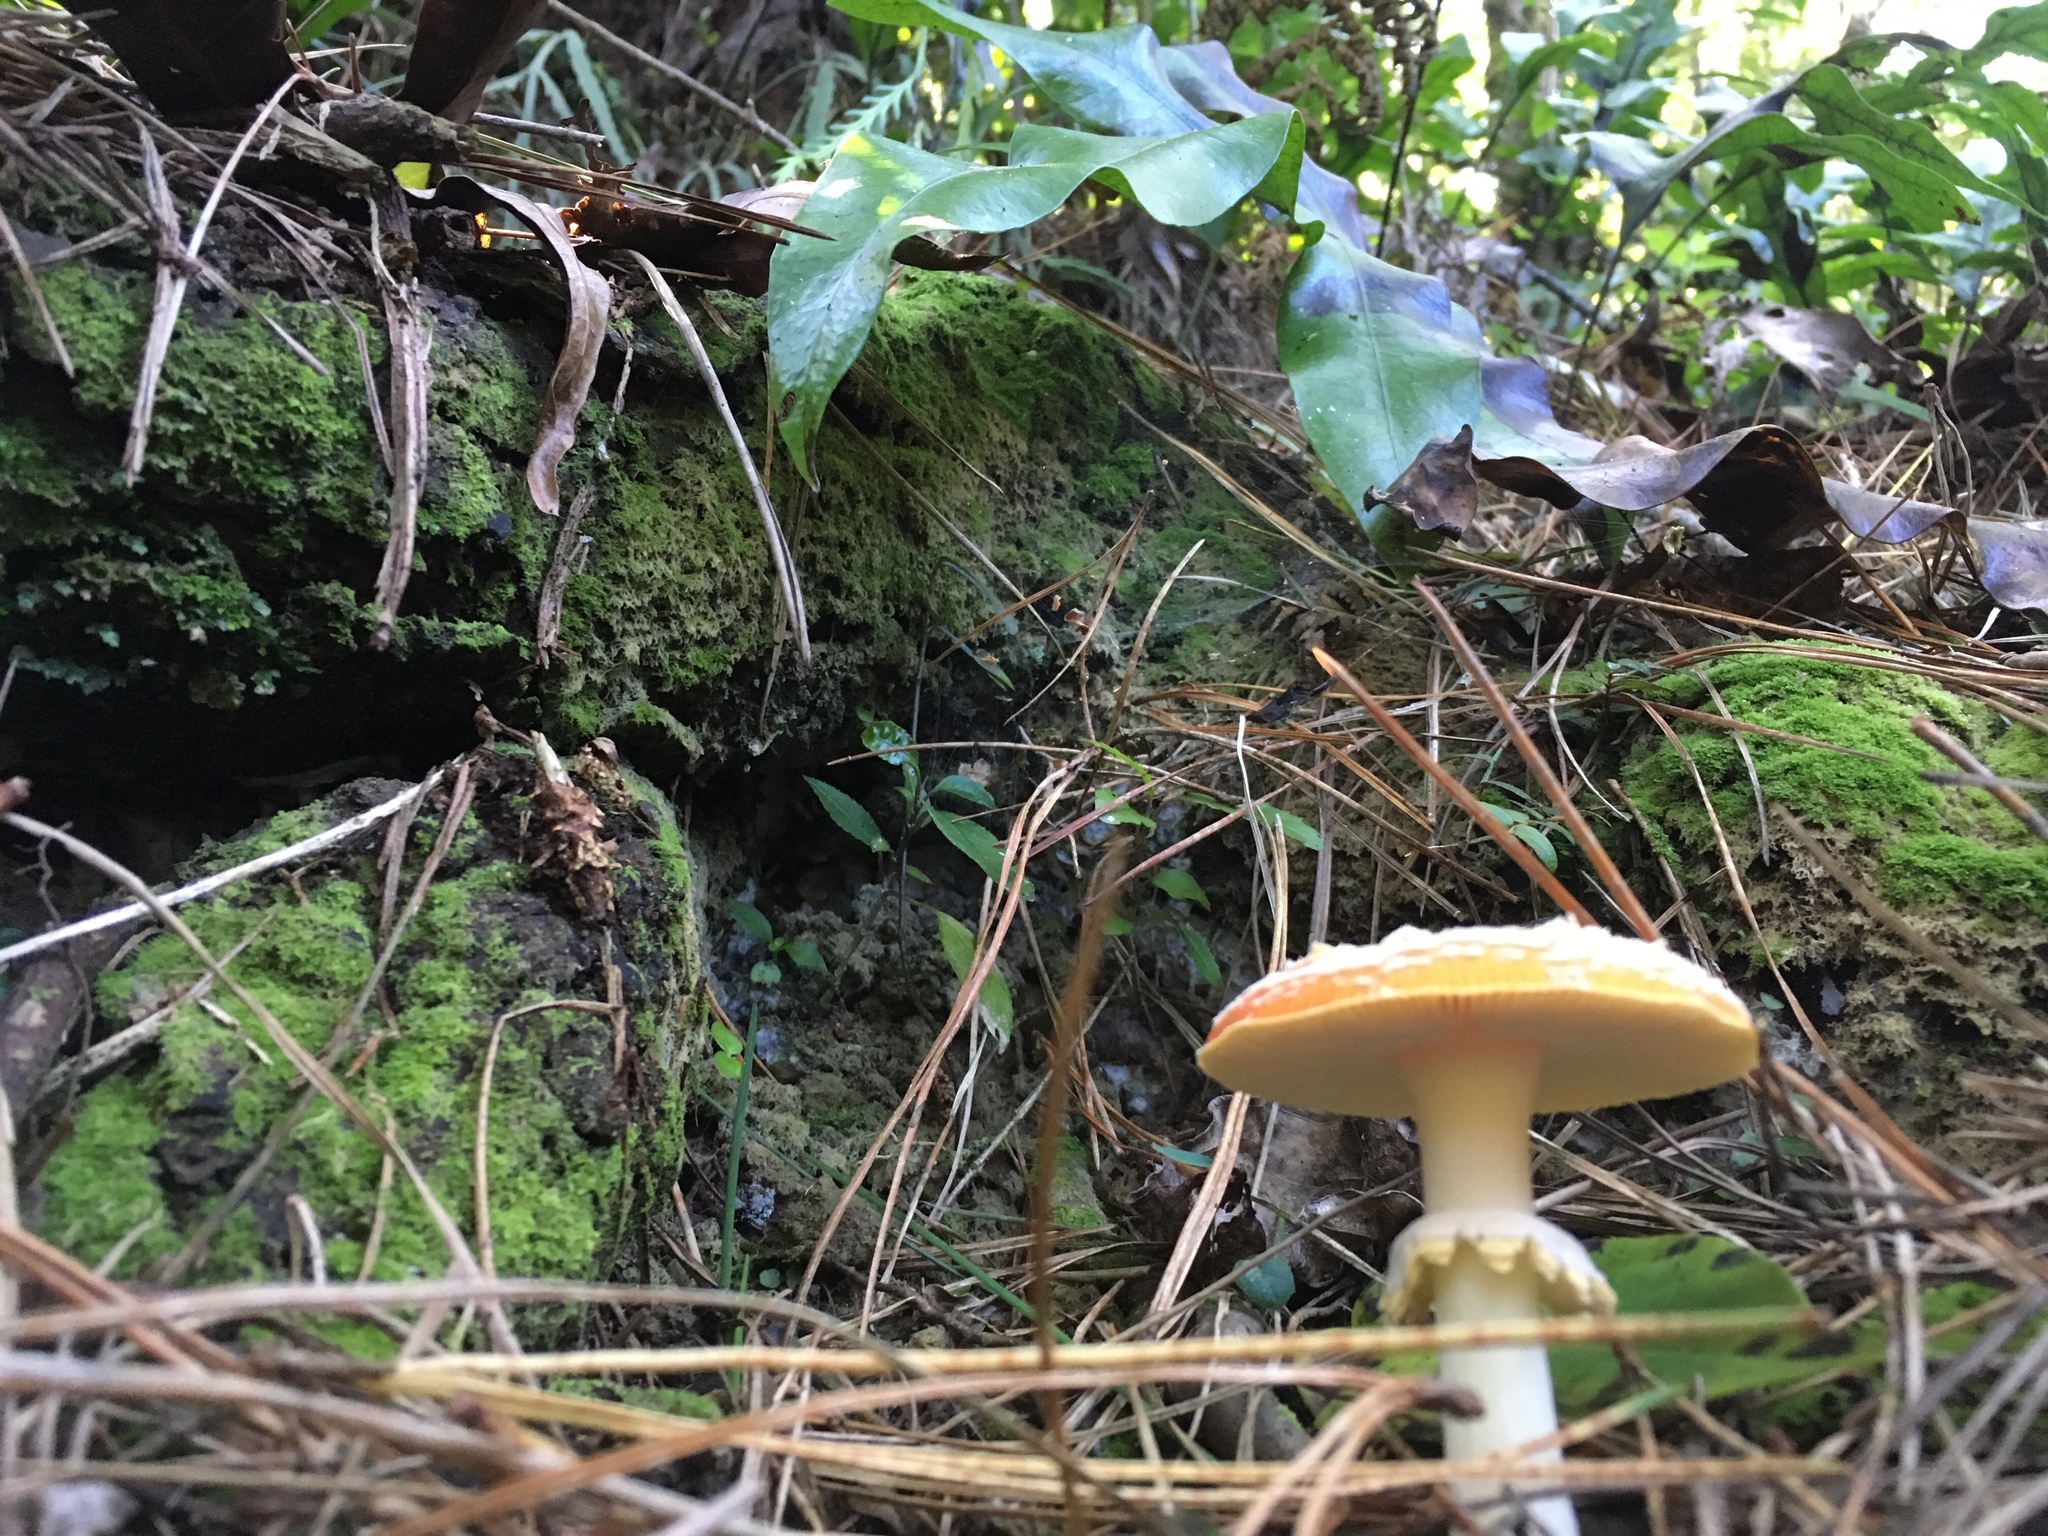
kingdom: Fungi
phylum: Basidiomycota
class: Agaricomycetes
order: Agaricales
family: Amanitaceae
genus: Amanita
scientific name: Amanita muscaria
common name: Fly agaric
